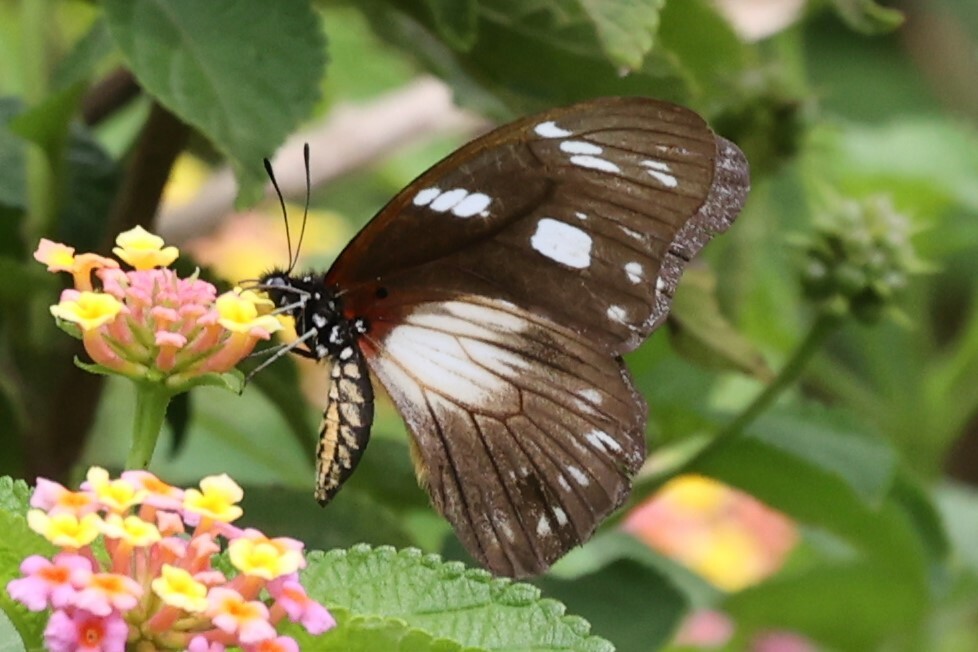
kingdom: Animalia
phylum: Arthropoda
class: Insecta
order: Lepidoptera
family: Papilionidae
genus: Graphium
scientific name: Graphium almansor
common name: Almansor white-lady swordtail
